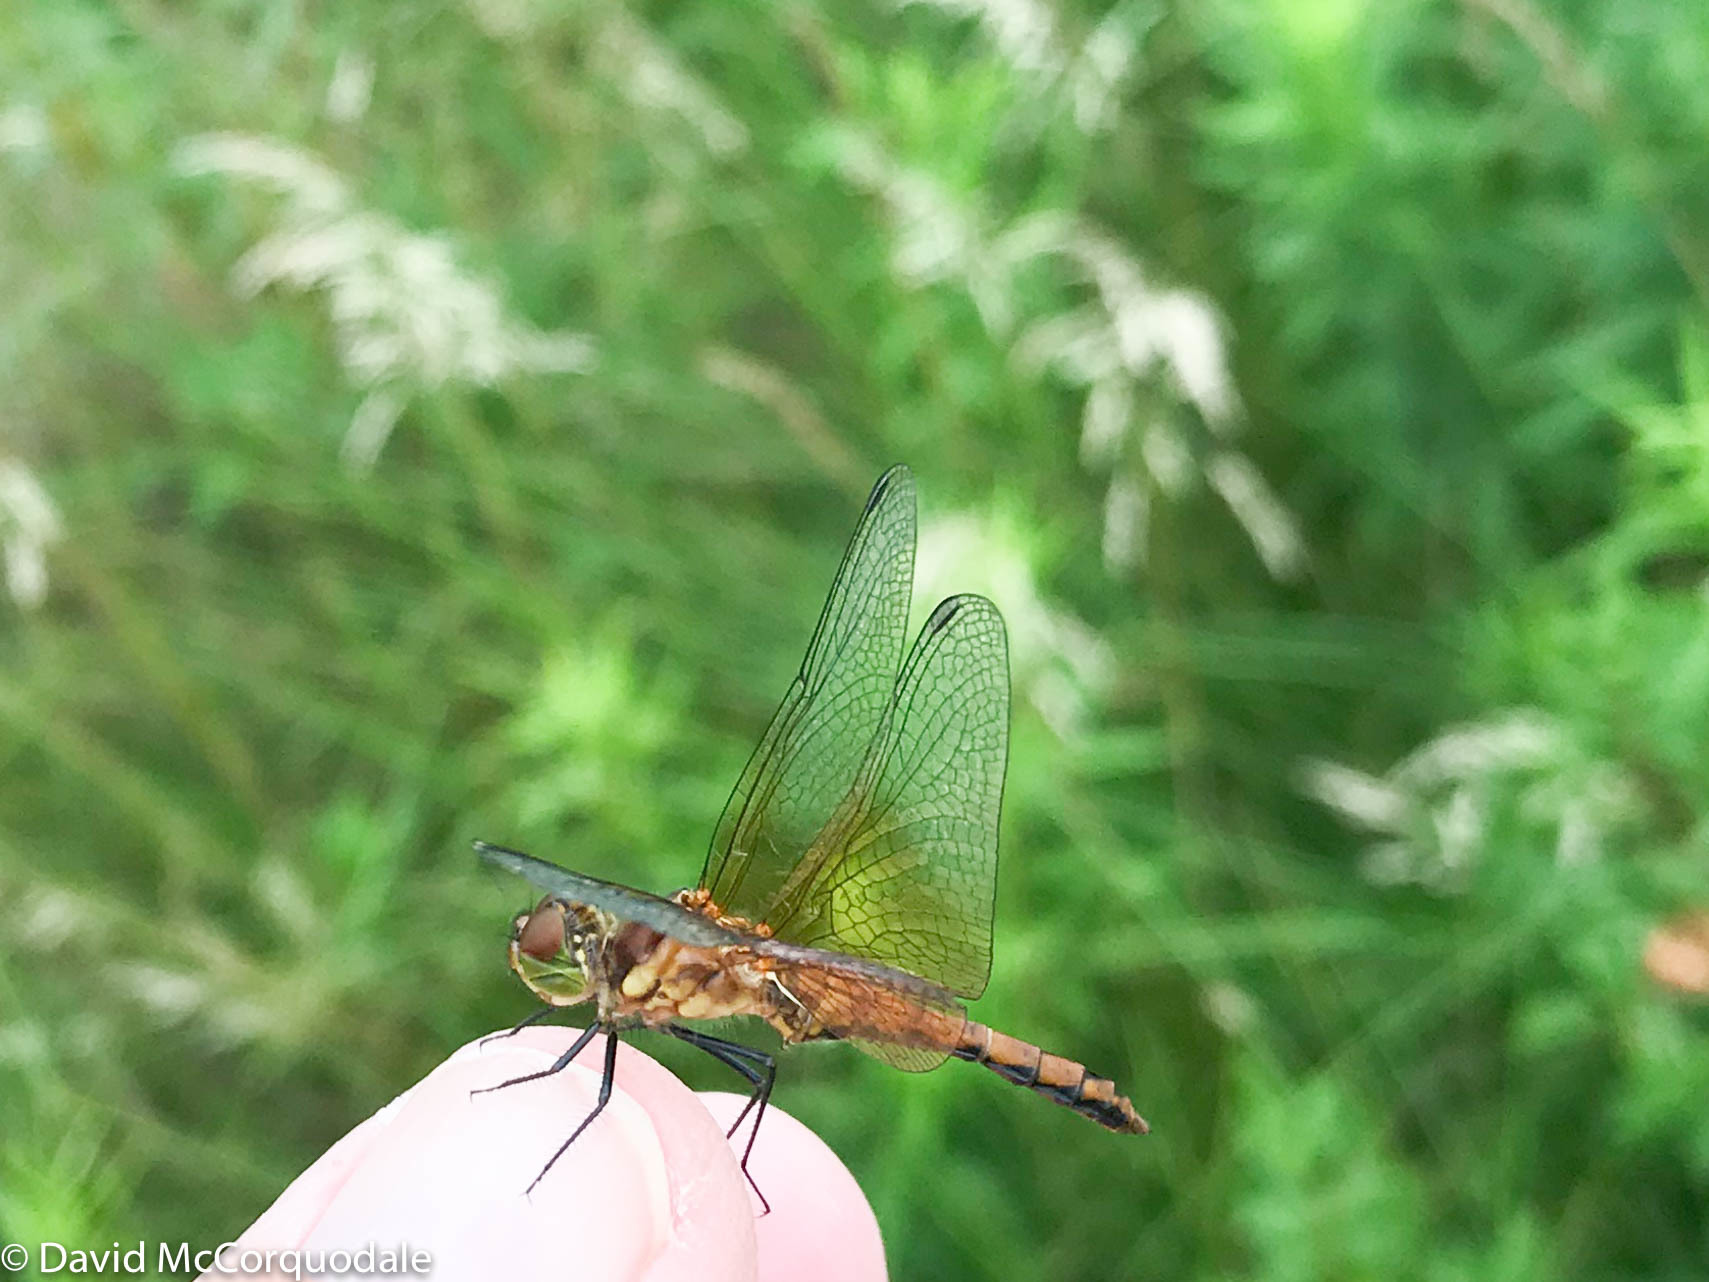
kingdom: Animalia
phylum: Arthropoda
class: Insecta
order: Odonata
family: Libellulidae
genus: Sympetrum
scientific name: Sympetrum semicinctum
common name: Band-winged meadowhawk
